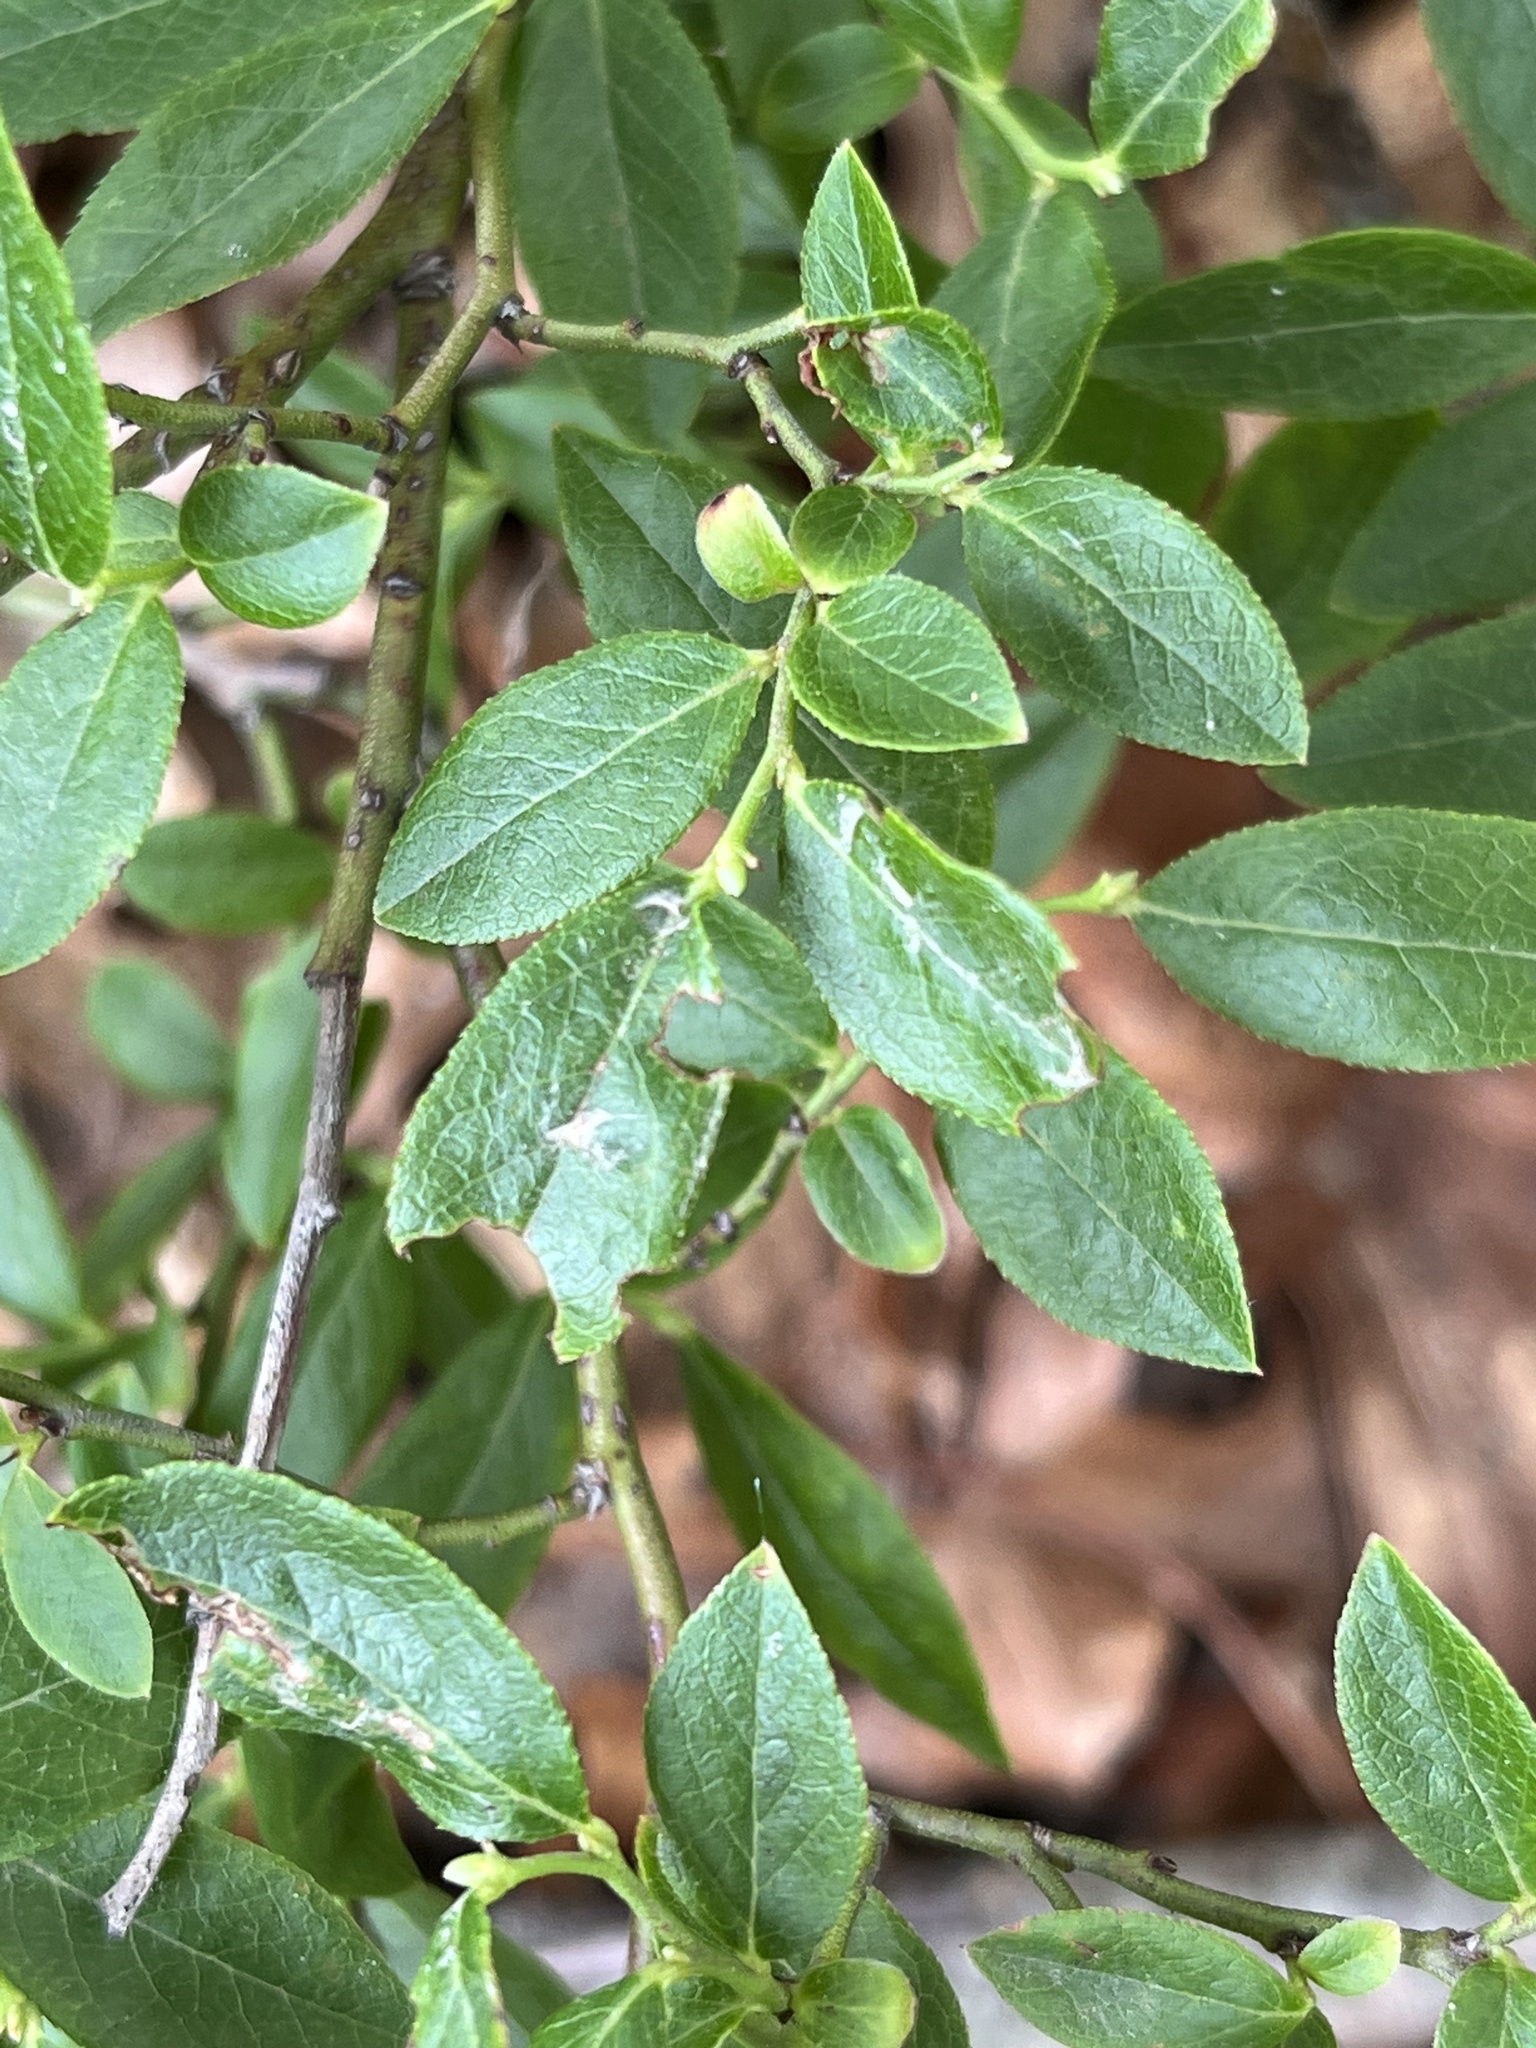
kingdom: Plantae
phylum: Tracheophyta
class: Magnoliopsida
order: Ericales
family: Ericaceae
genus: Vaccinium
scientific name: Vaccinium angustifolium
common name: Early lowbush blueberry
